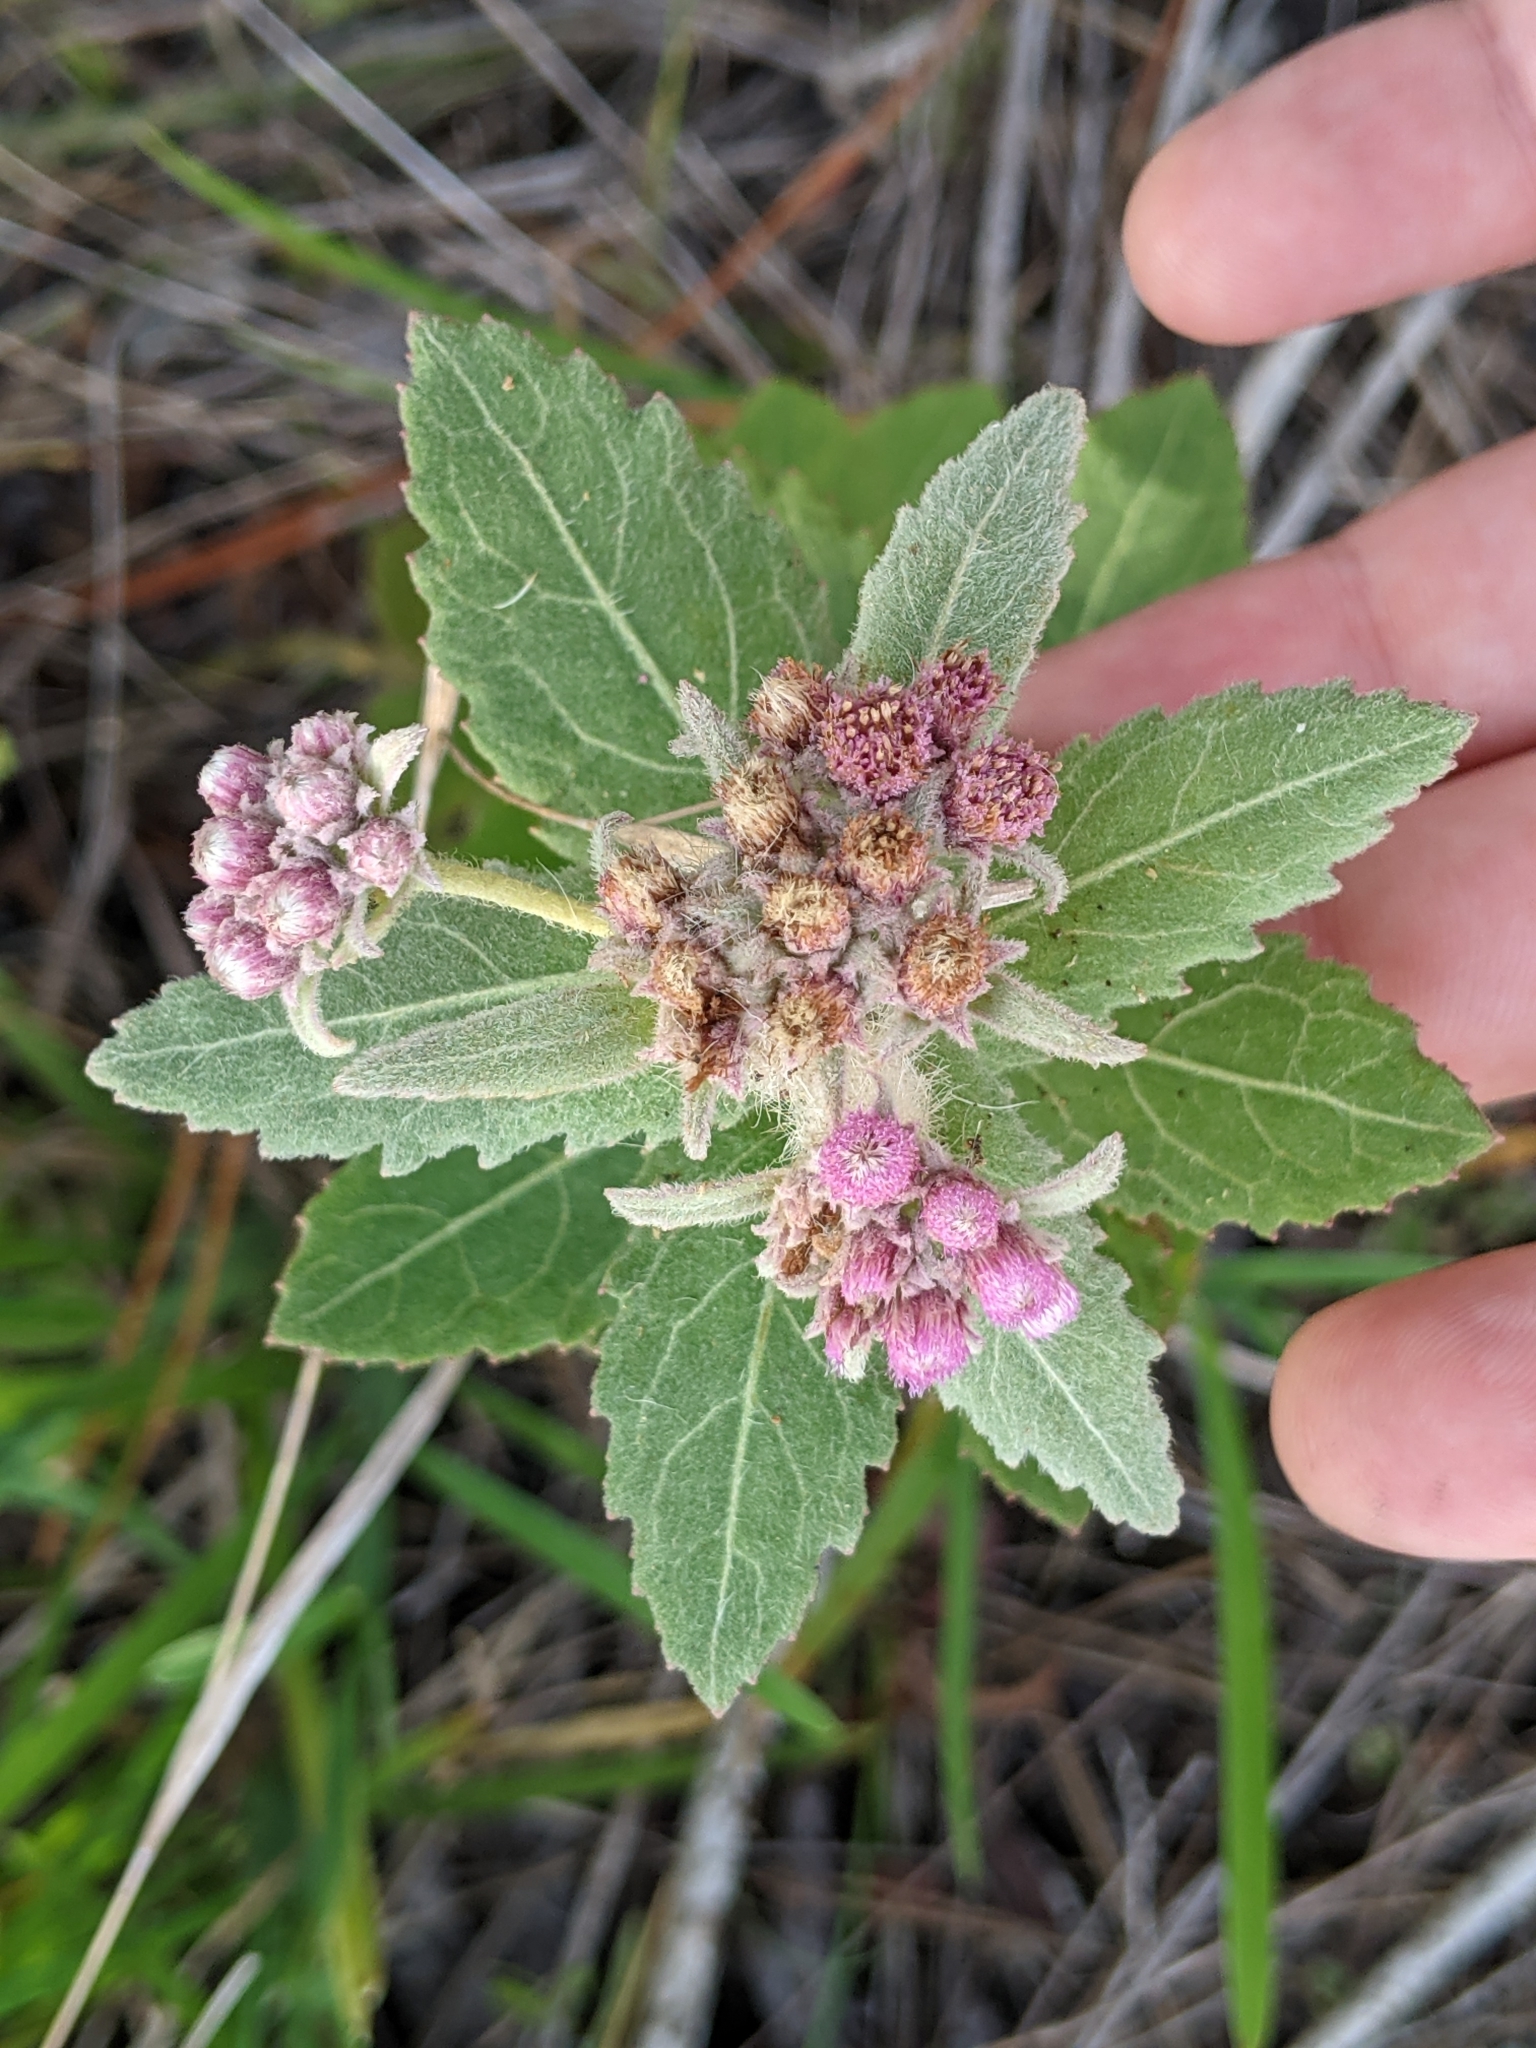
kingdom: Plantae
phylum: Tracheophyta
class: Magnoliopsida
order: Asterales
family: Asteraceae
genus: Pluchea
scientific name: Pluchea baccharis
